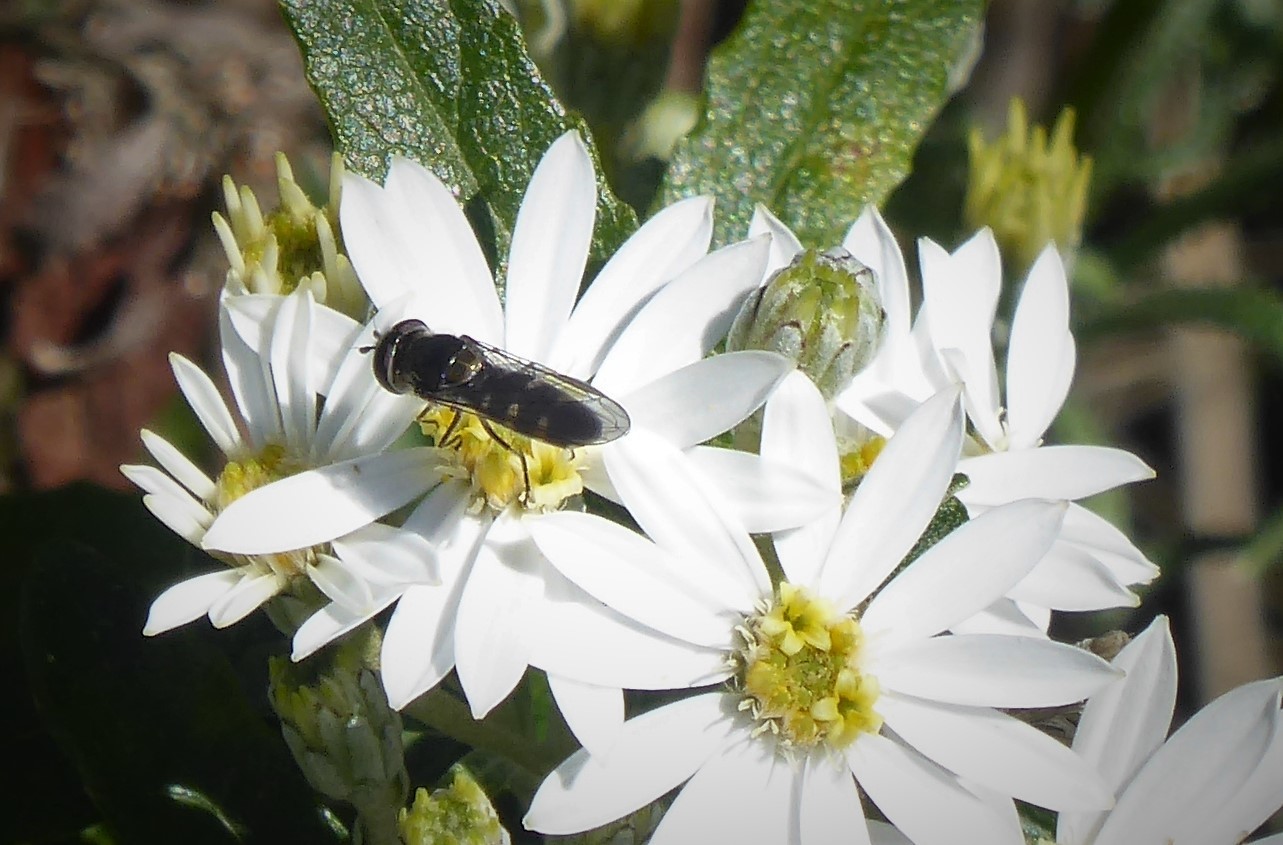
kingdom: Animalia
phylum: Arthropoda
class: Insecta
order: Diptera
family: Syrphidae
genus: Melangyna
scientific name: Melangyna novaezelandiae
